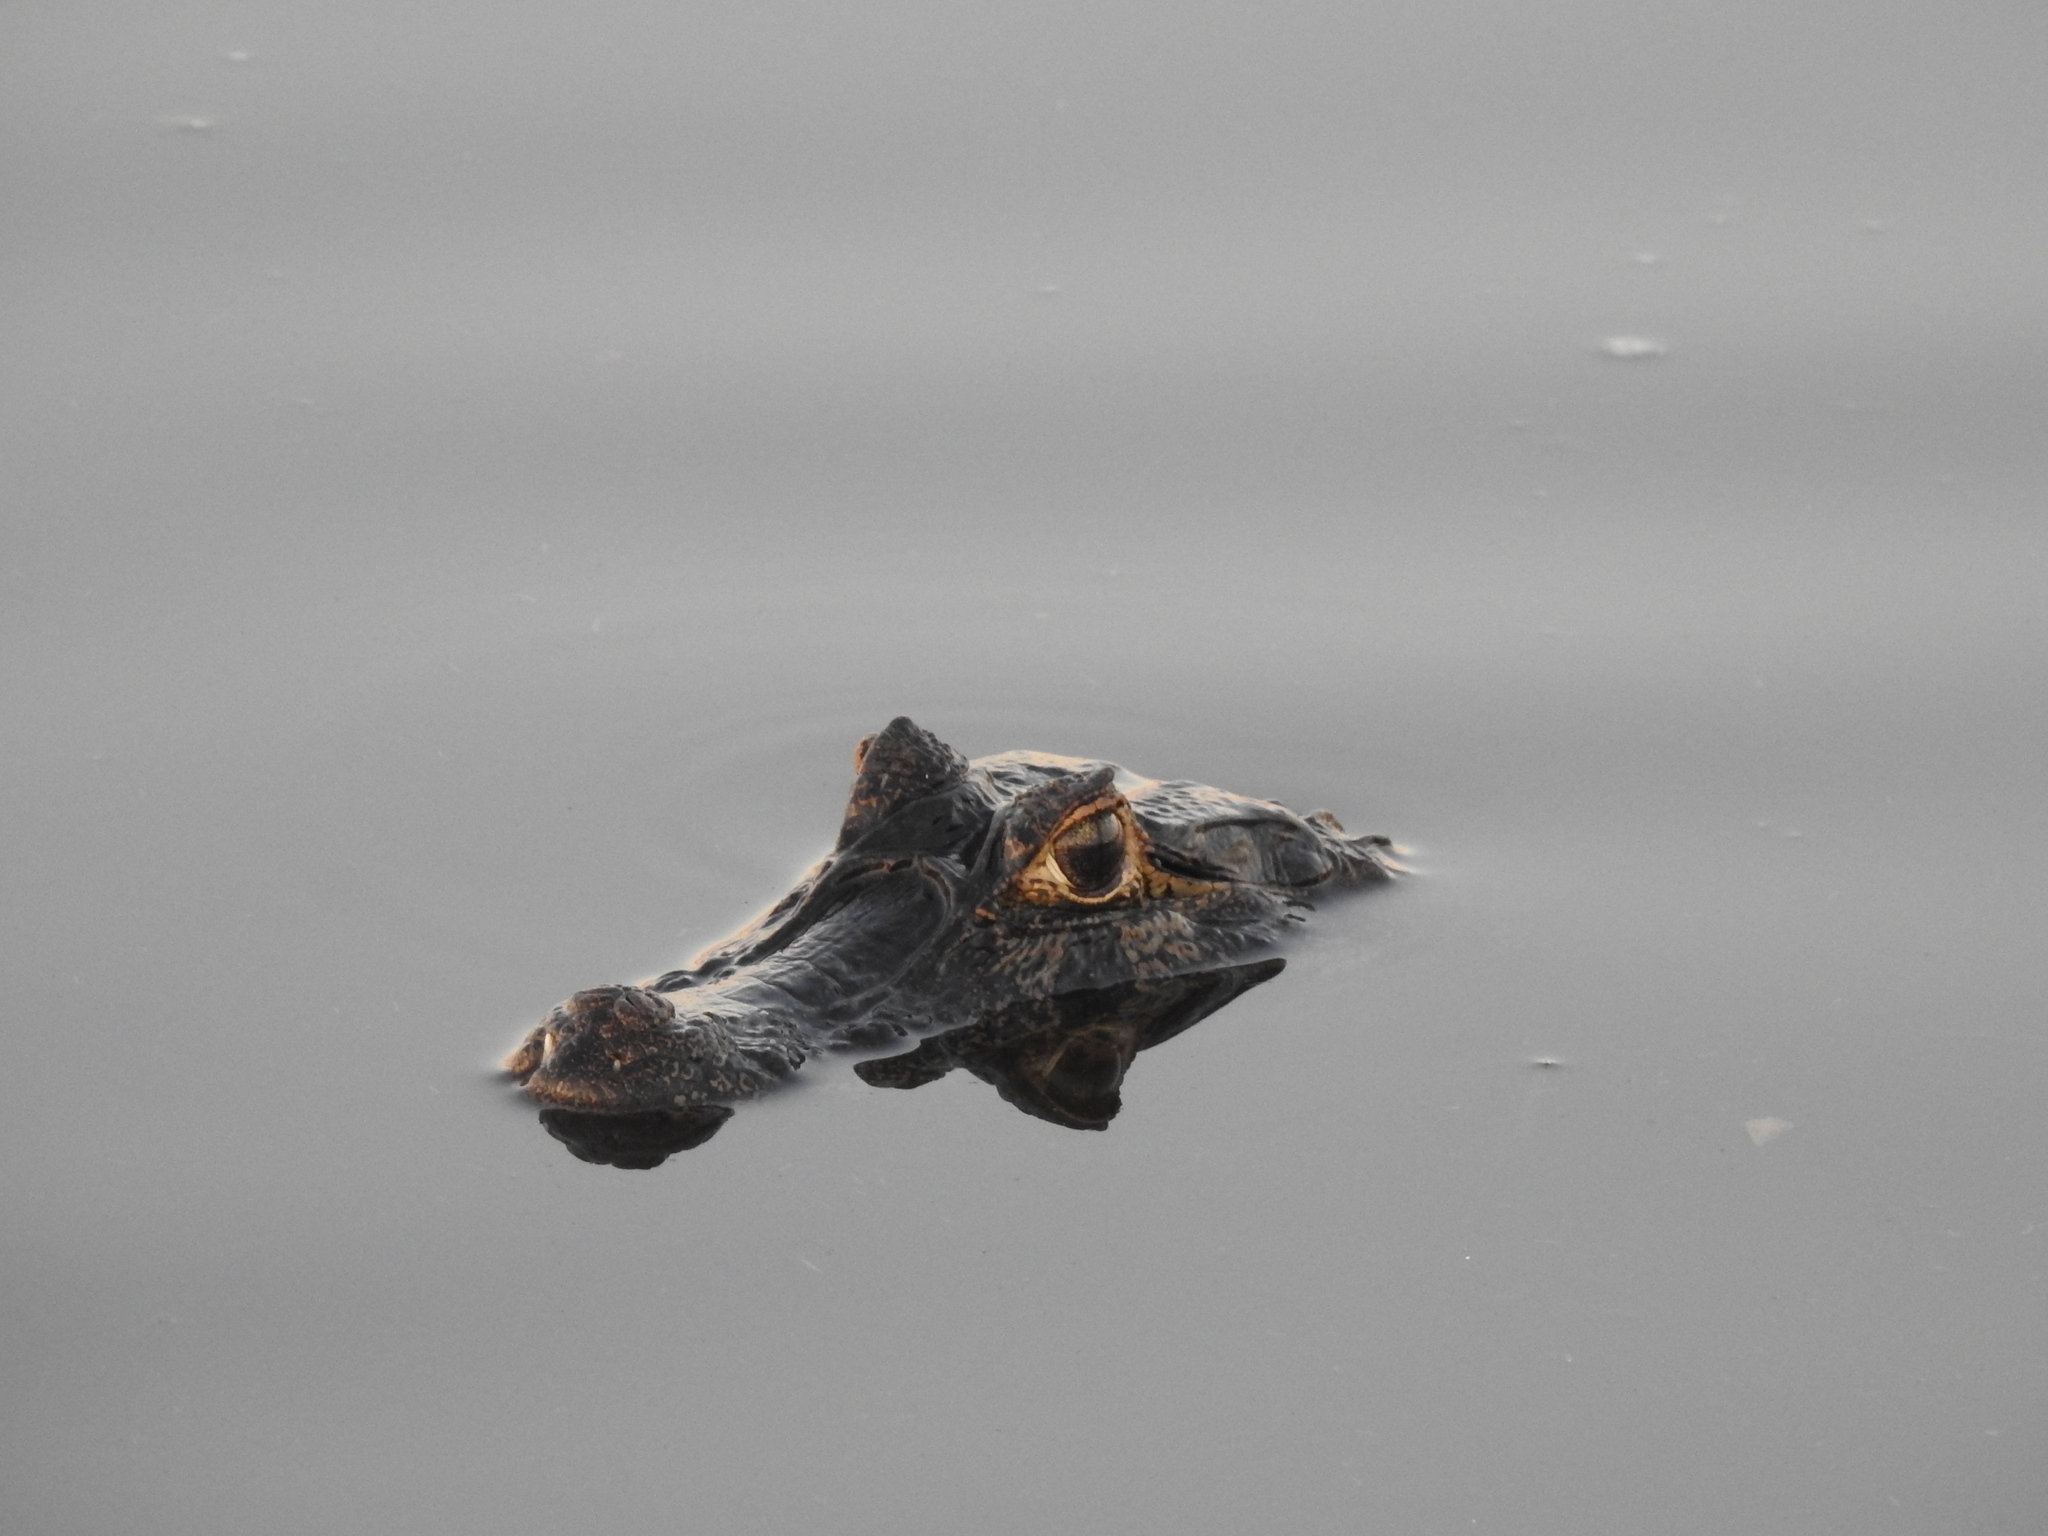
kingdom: Animalia
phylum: Chordata
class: Crocodylia
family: Alligatoridae
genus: Caiman
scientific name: Caiman yacare
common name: Yacare caiman
